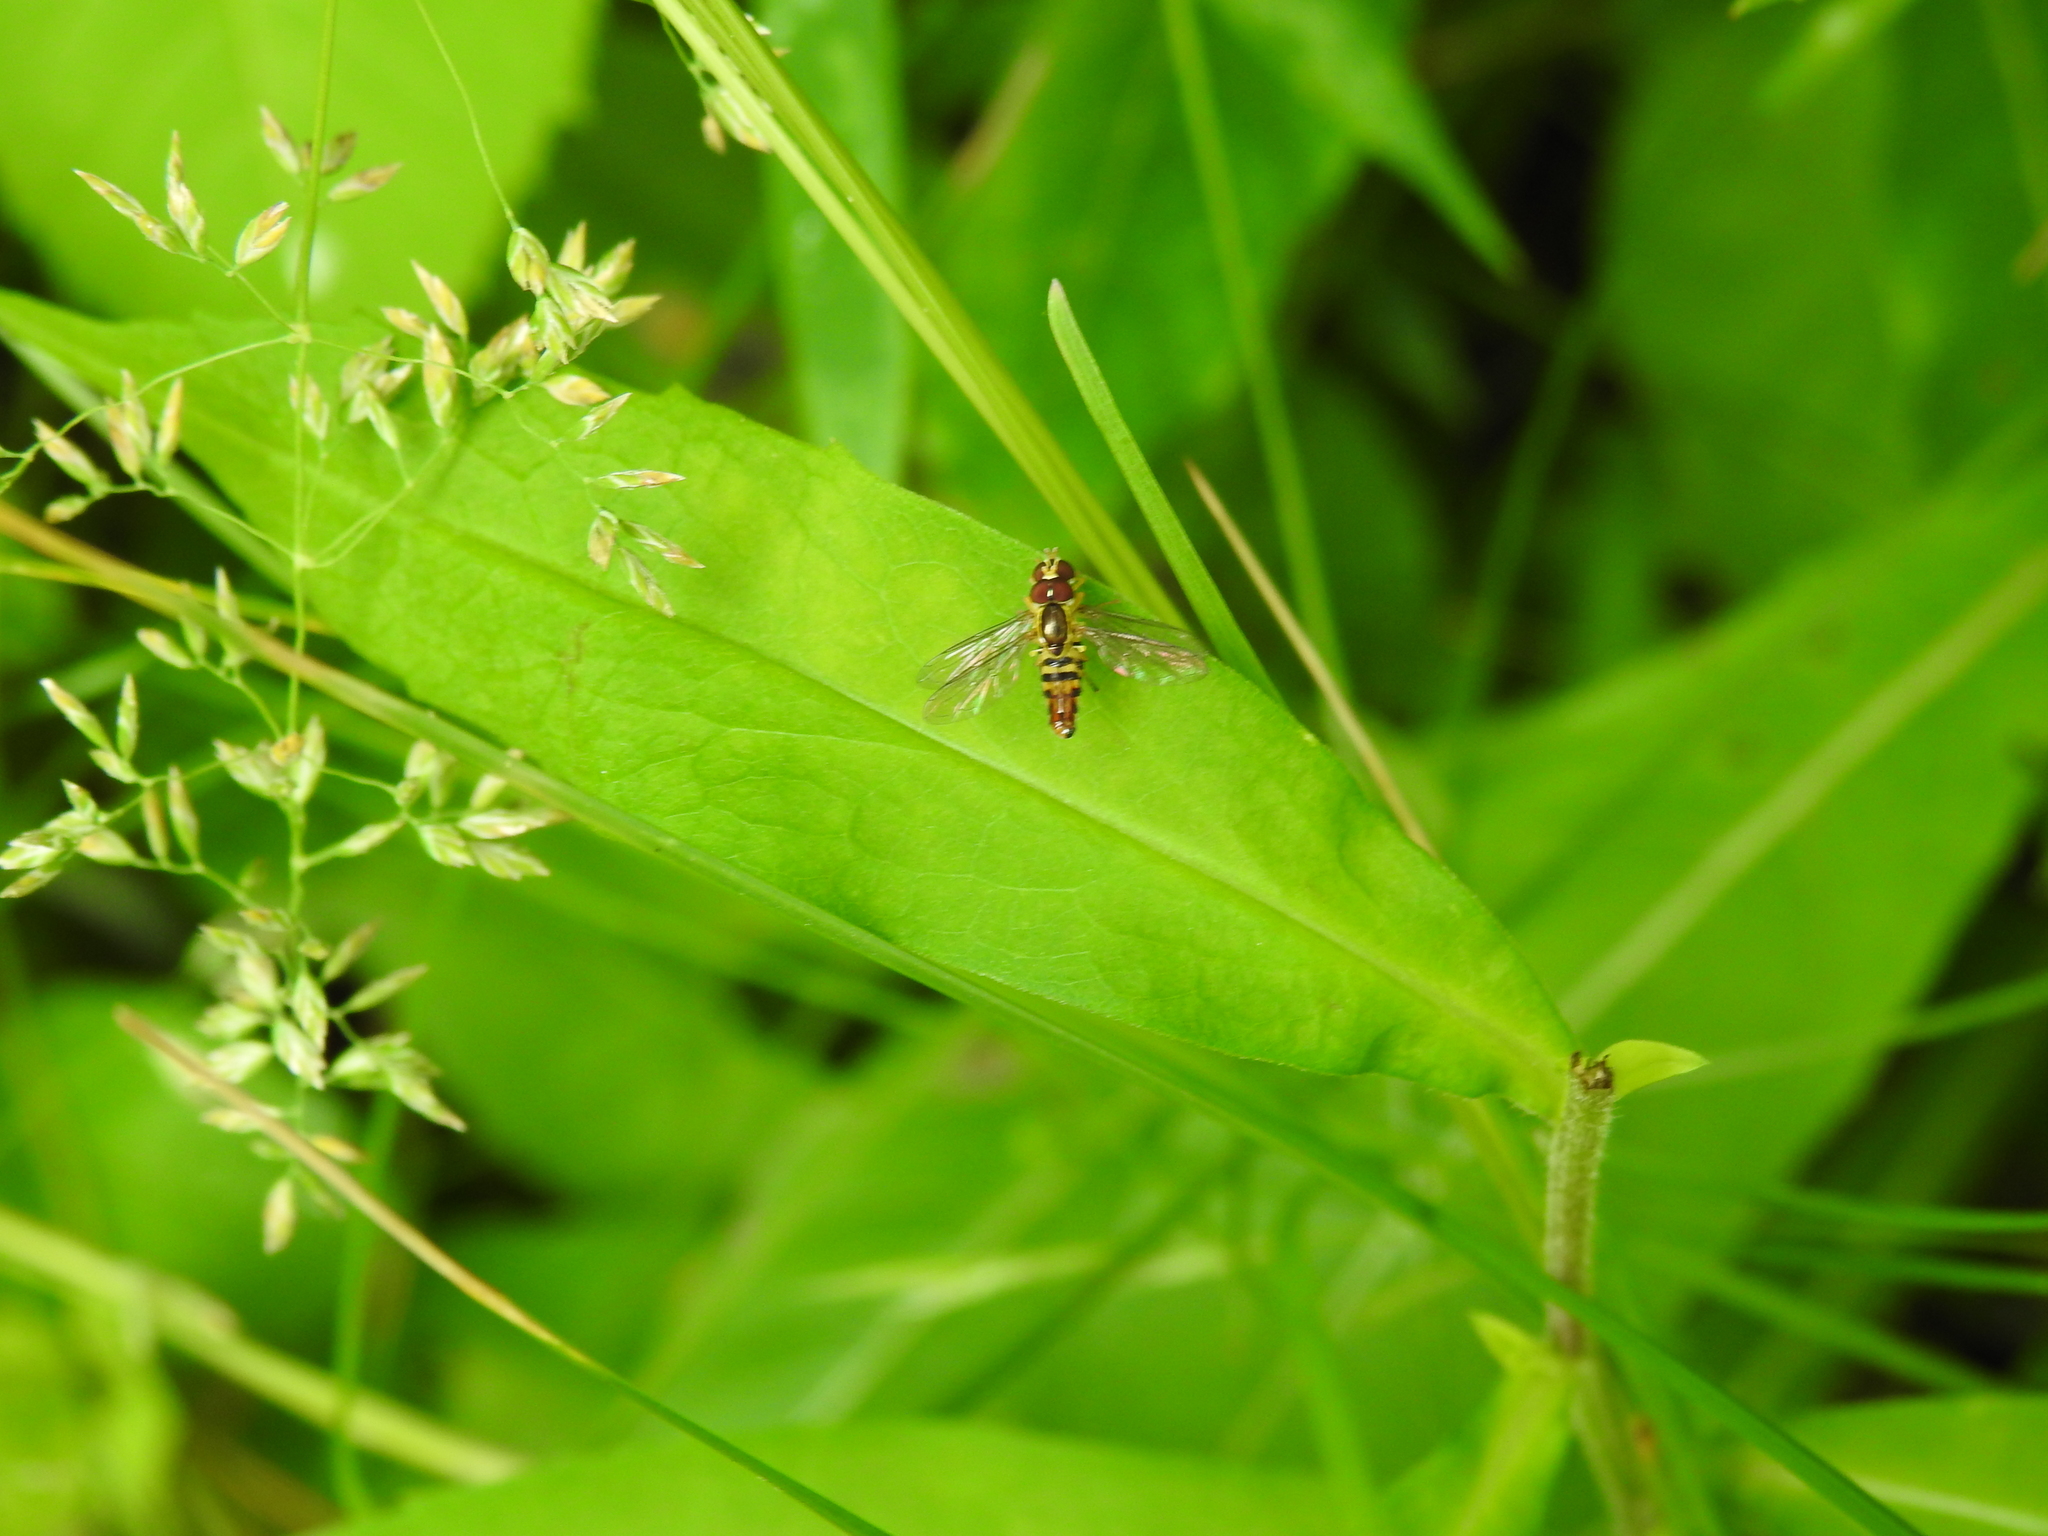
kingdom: Animalia
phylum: Arthropoda
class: Insecta
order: Diptera
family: Syrphidae
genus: Toxomerus
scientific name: Toxomerus geminatus
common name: Eastern calligrapher
